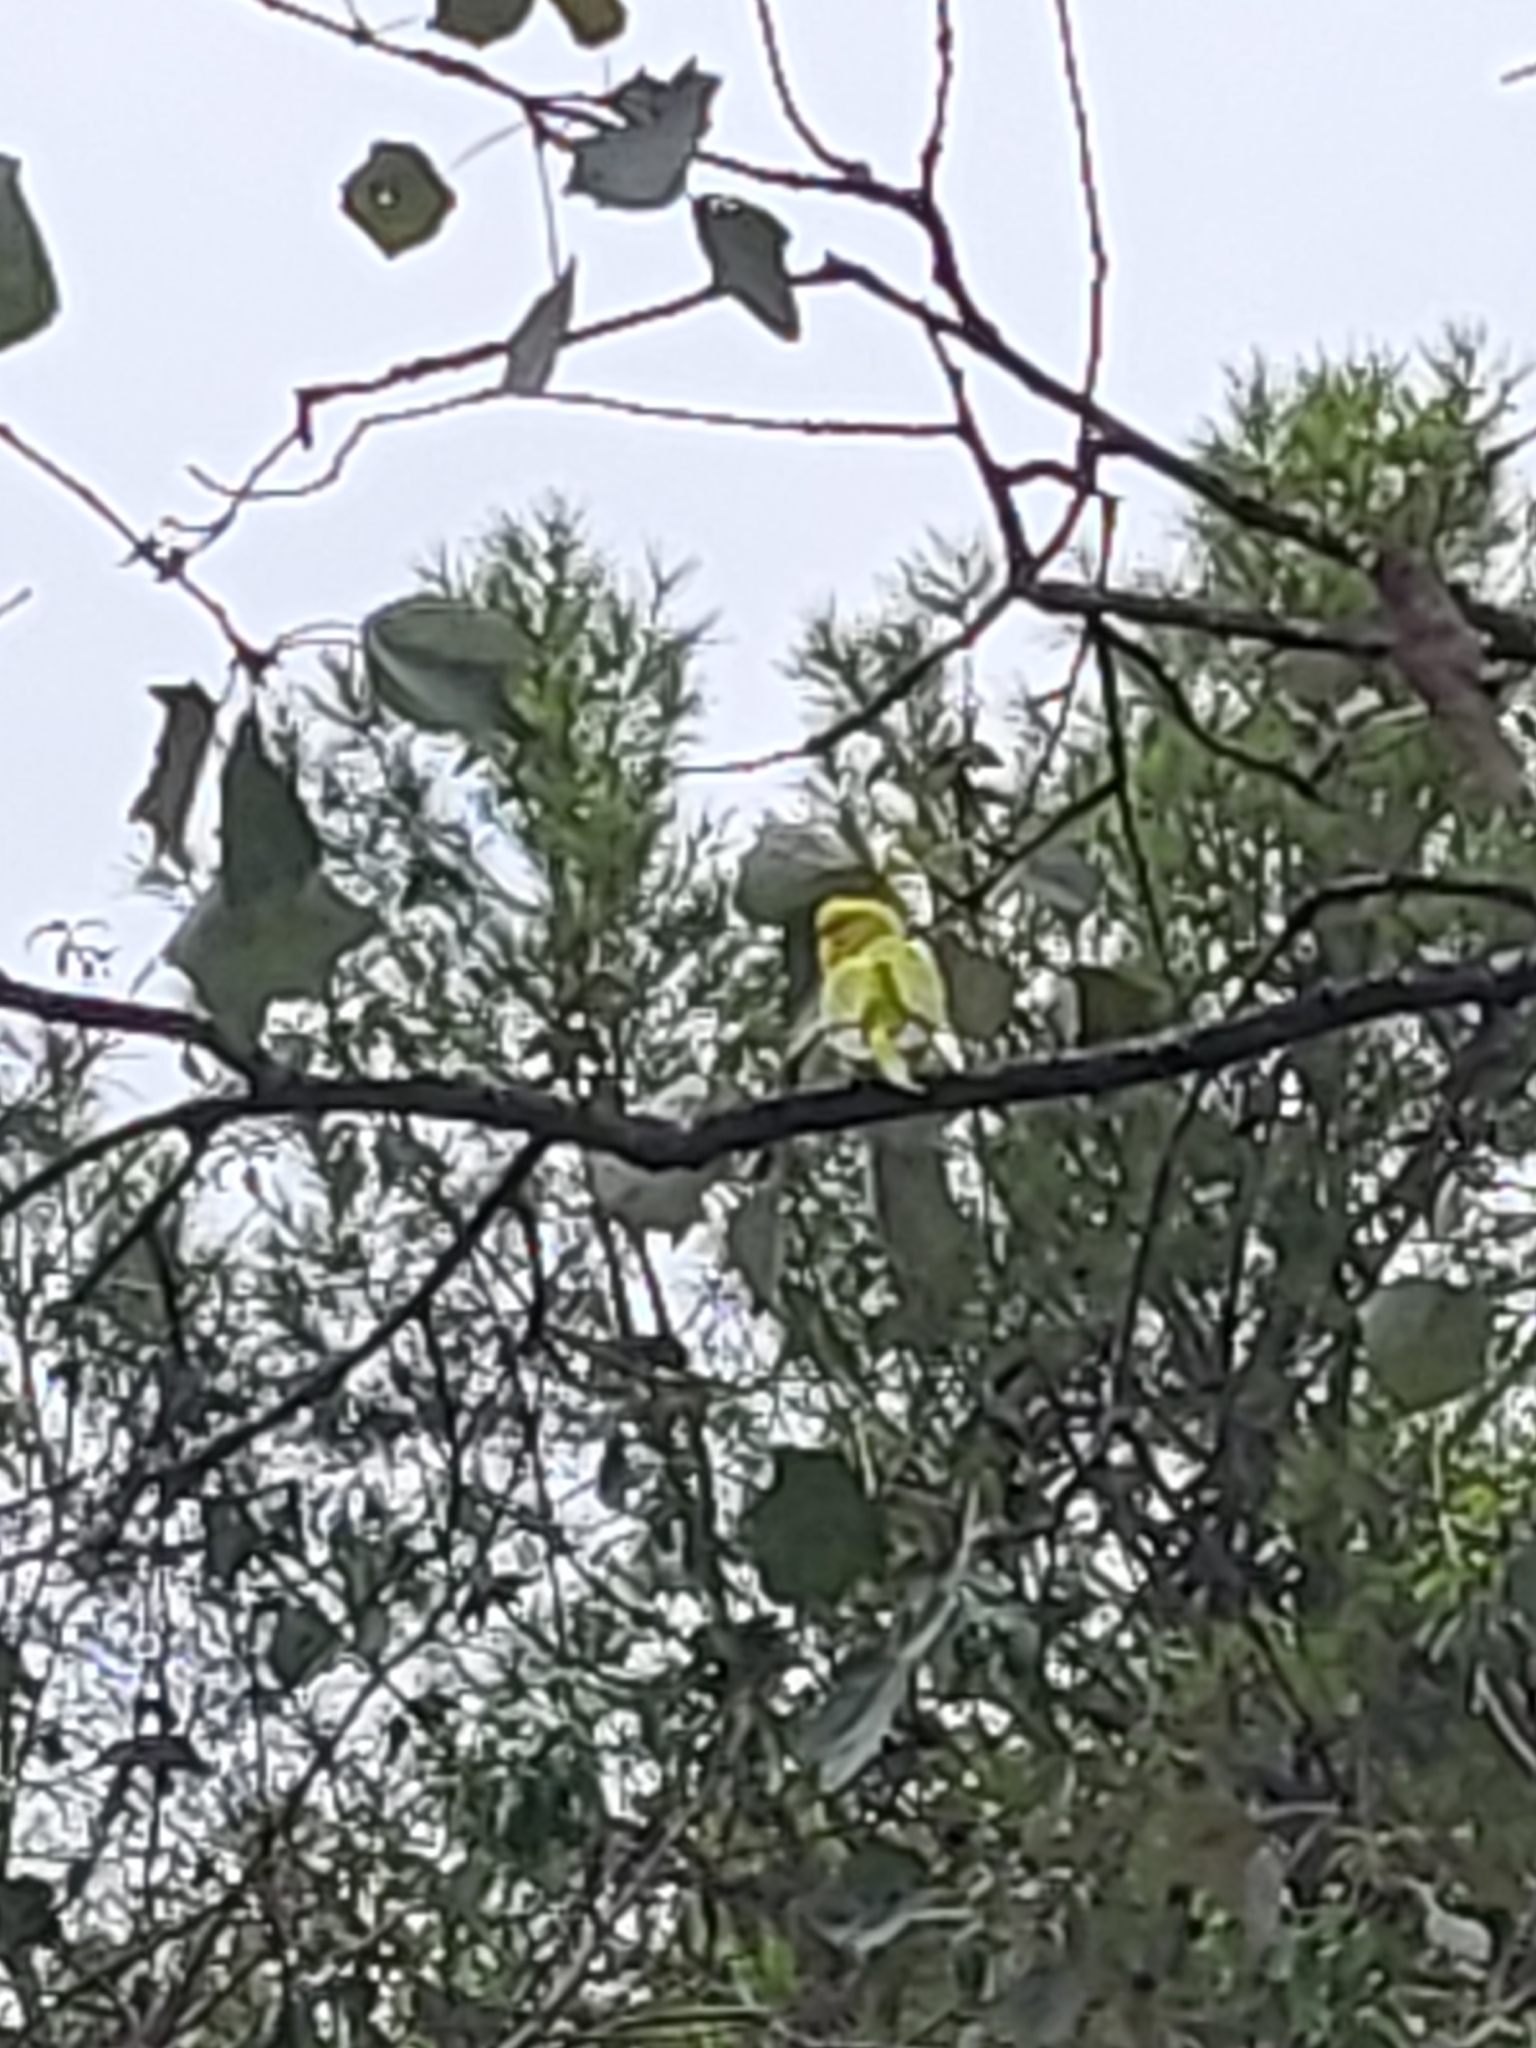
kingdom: Animalia
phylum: Chordata
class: Aves
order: Psittaciformes
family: Psittacidae
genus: Melopsittacus
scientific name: Melopsittacus undulatus
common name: Budgerigar
